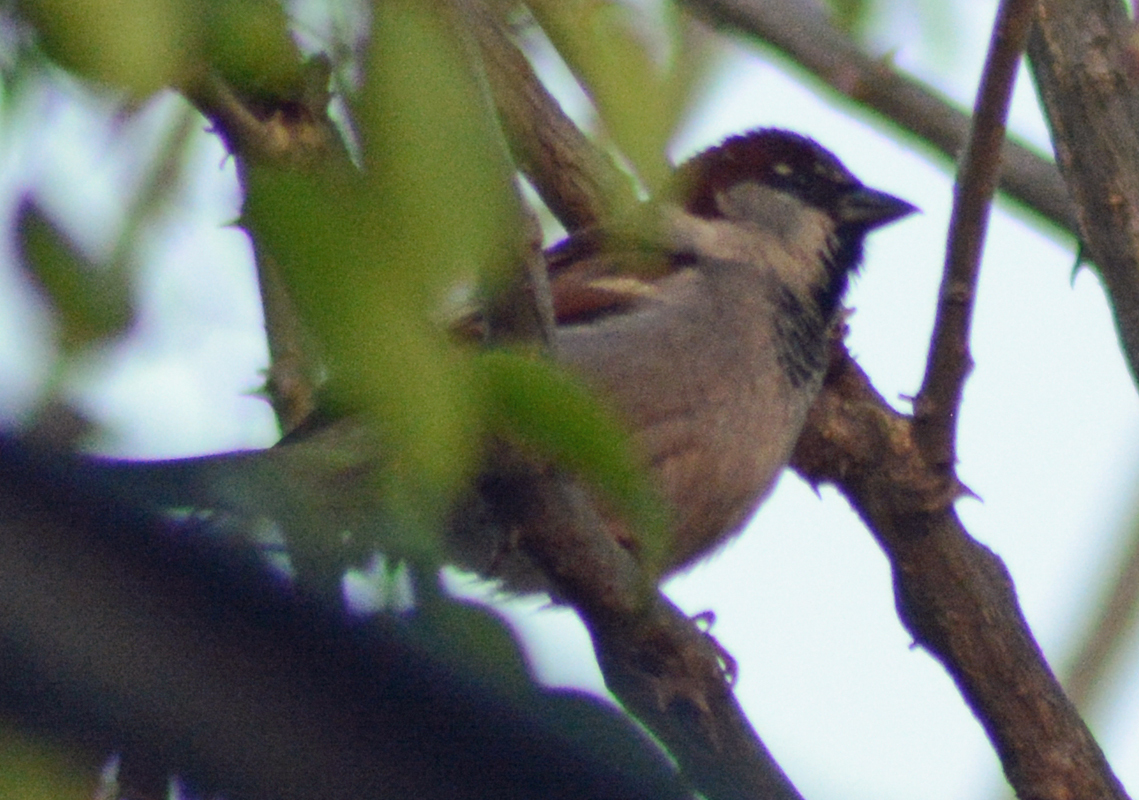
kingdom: Animalia
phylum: Chordata
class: Aves
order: Passeriformes
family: Passeridae
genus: Passer
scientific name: Passer domesticus
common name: House sparrow
